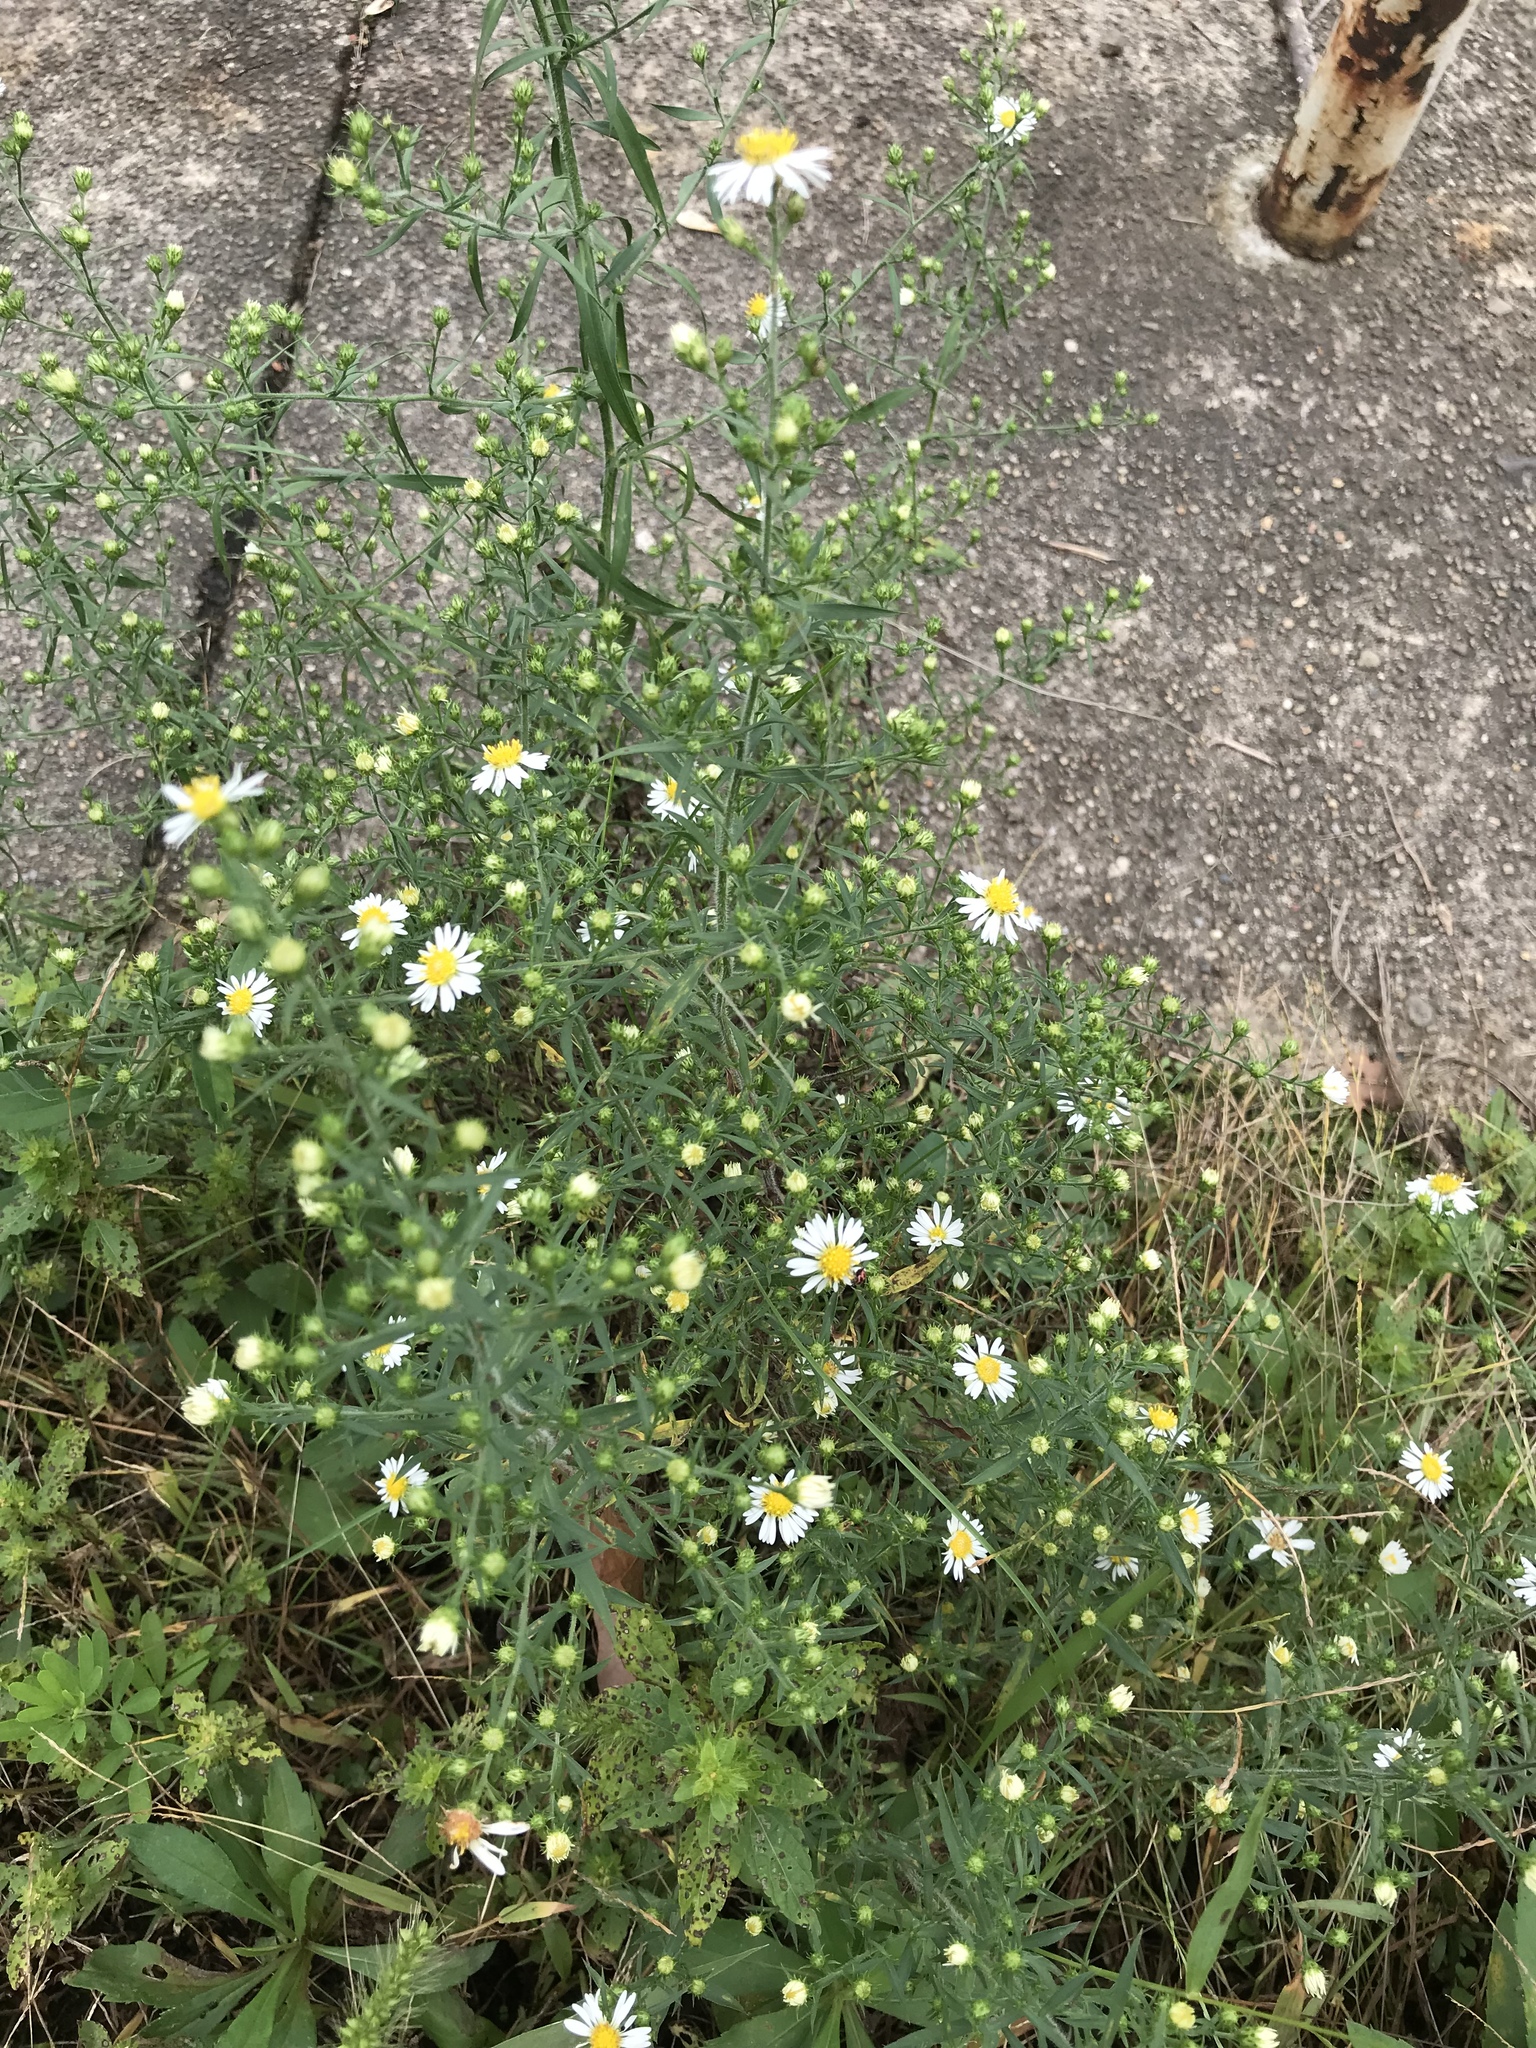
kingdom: Plantae
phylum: Tracheophyta
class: Magnoliopsida
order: Asterales
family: Asteraceae
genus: Symphyotrichum
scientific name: Symphyotrichum pilosum
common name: Awl aster
